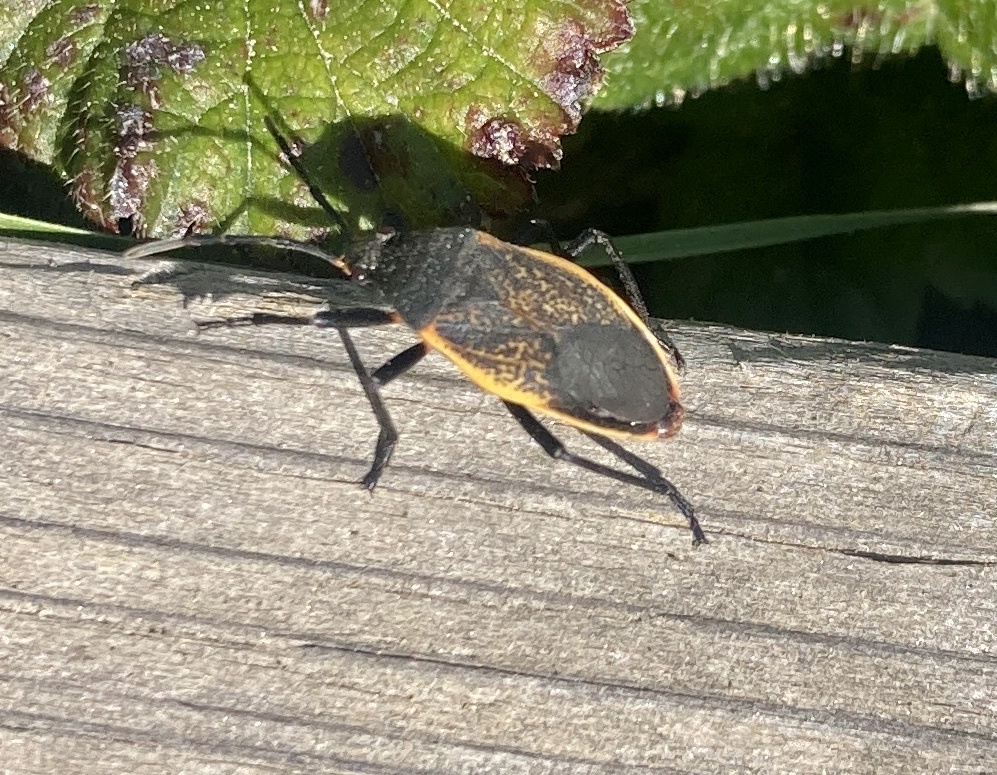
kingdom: Animalia
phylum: Arthropoda
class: Insecta
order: Hemiptera
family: Largidae
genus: Largus
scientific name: Largus californicus
